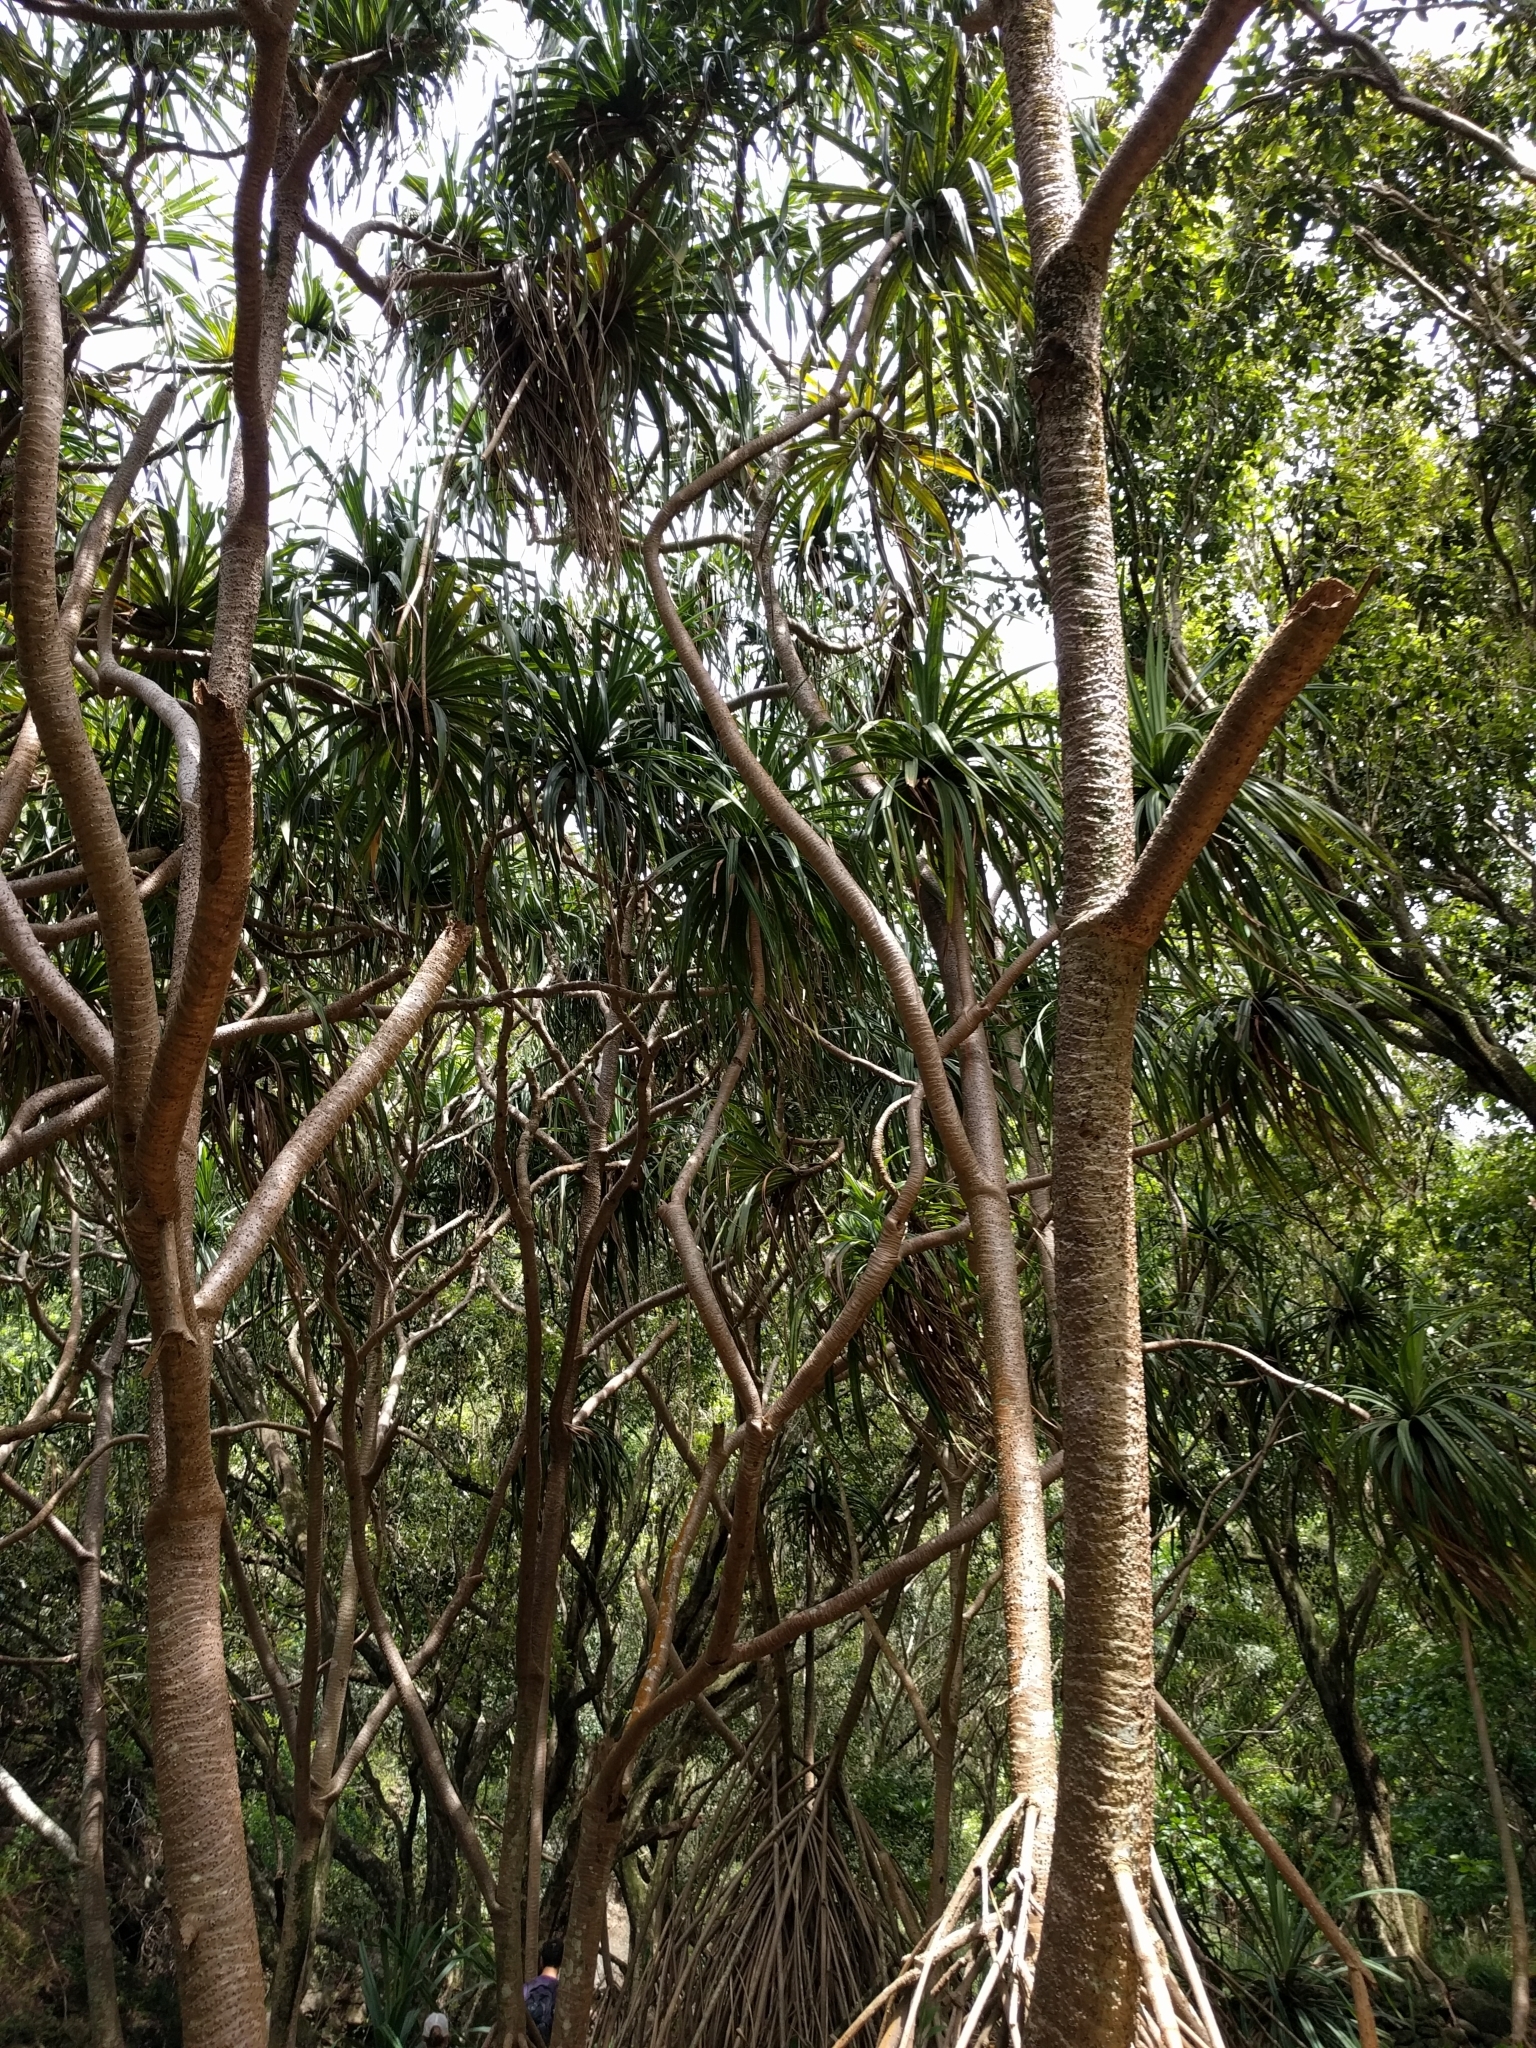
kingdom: Plantae
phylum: Tracheophyta
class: Liliopsida
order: Pandanales
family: Pandanaceae
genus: Pandanus
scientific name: Pandanus tectorius
